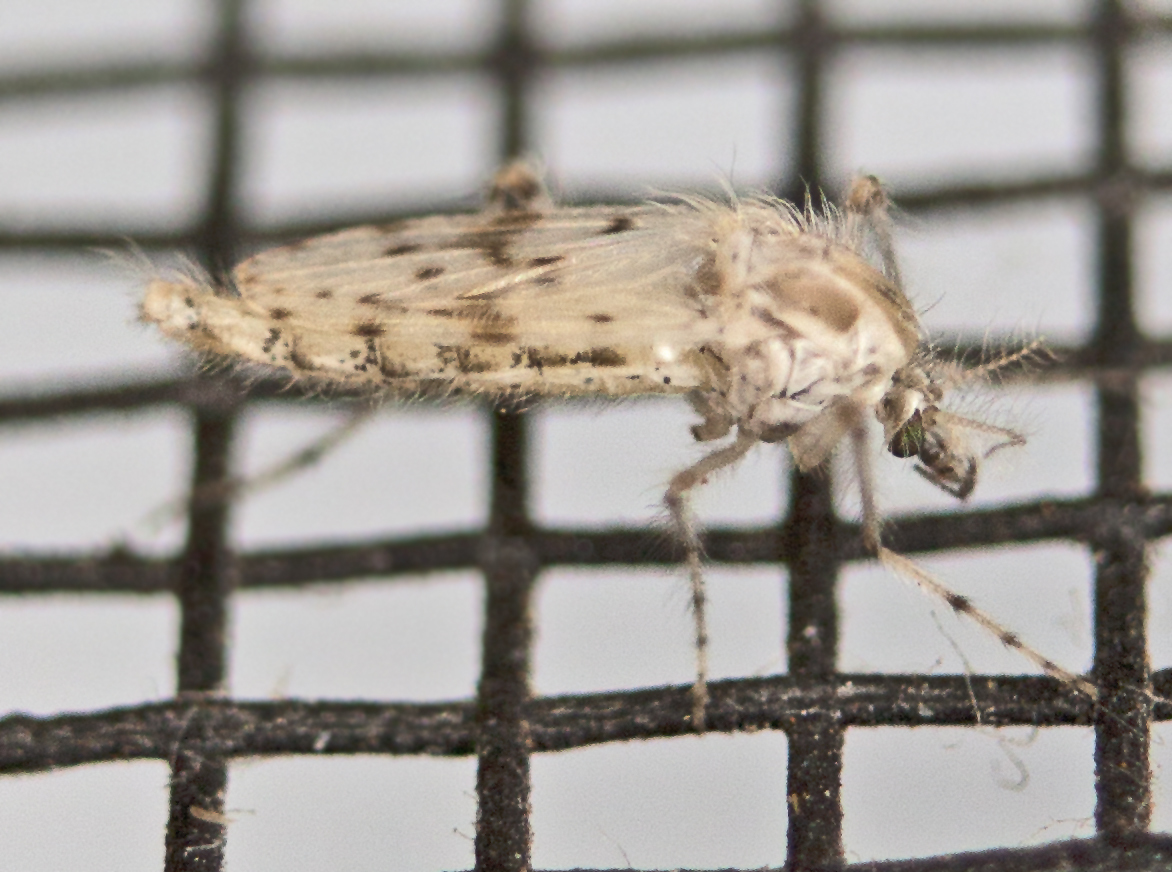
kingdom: Animalia
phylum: Arthropoda
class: Insecta
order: Diptera
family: Chaoboridae
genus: Chaoborus
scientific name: Chaoborus ornatipennis
